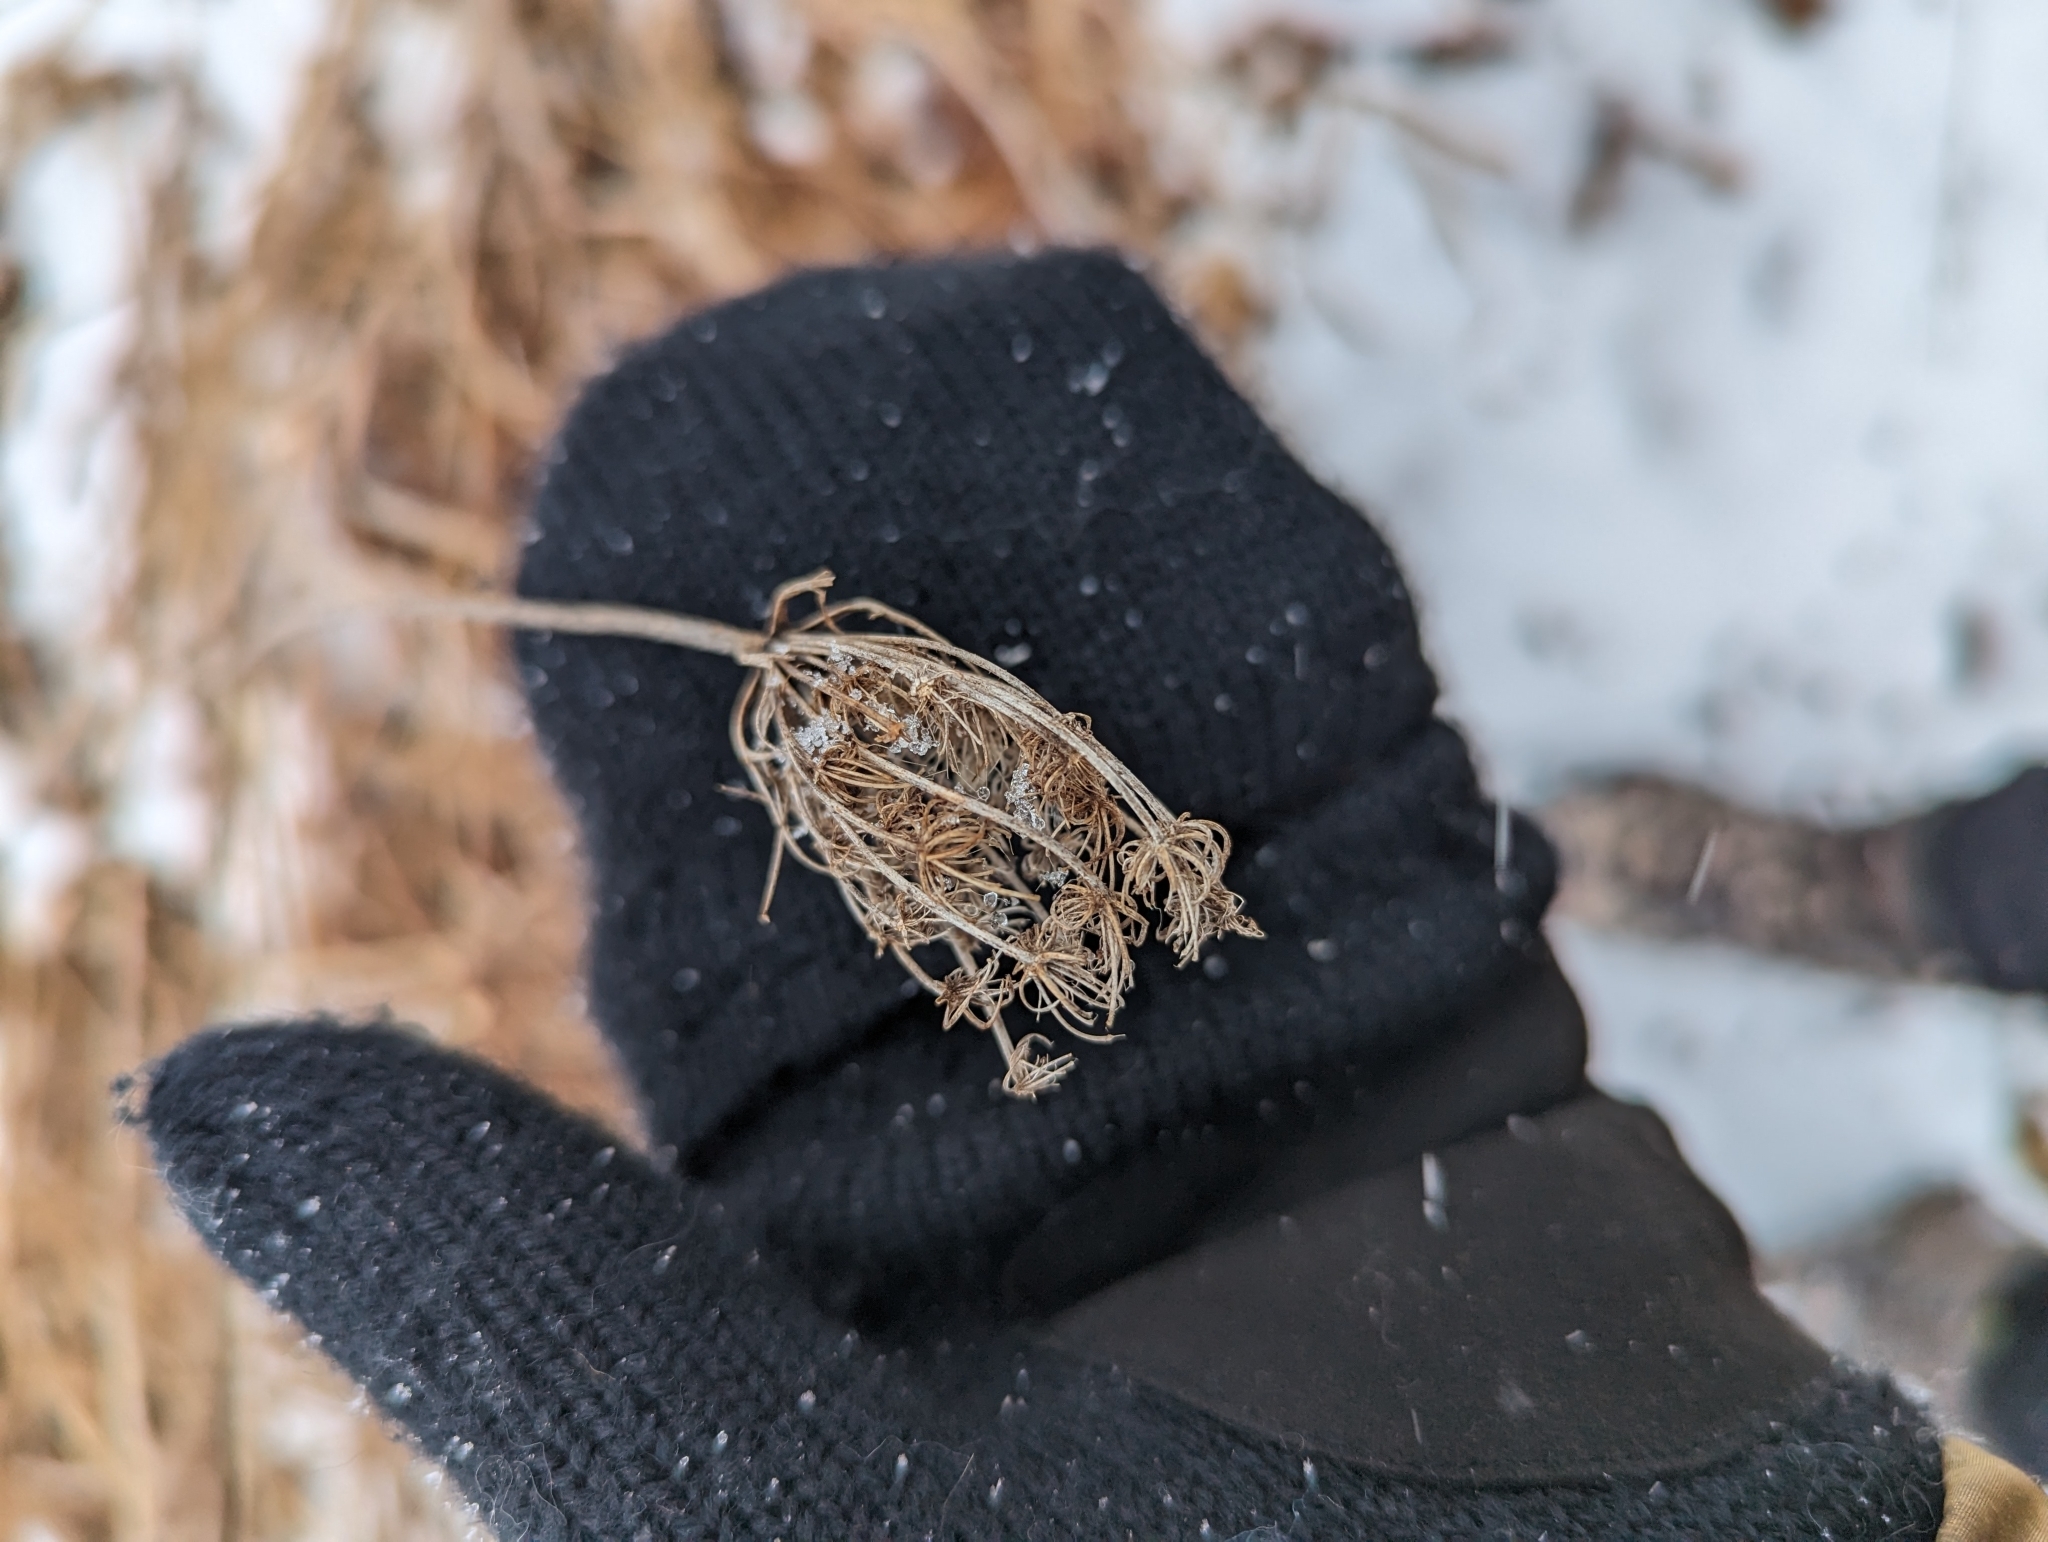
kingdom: Plantae
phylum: Tracheophyta
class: Magnoliopsida
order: Apiales
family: Apiaceae
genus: Daucus
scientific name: Daucus carota
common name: Wild carrot
